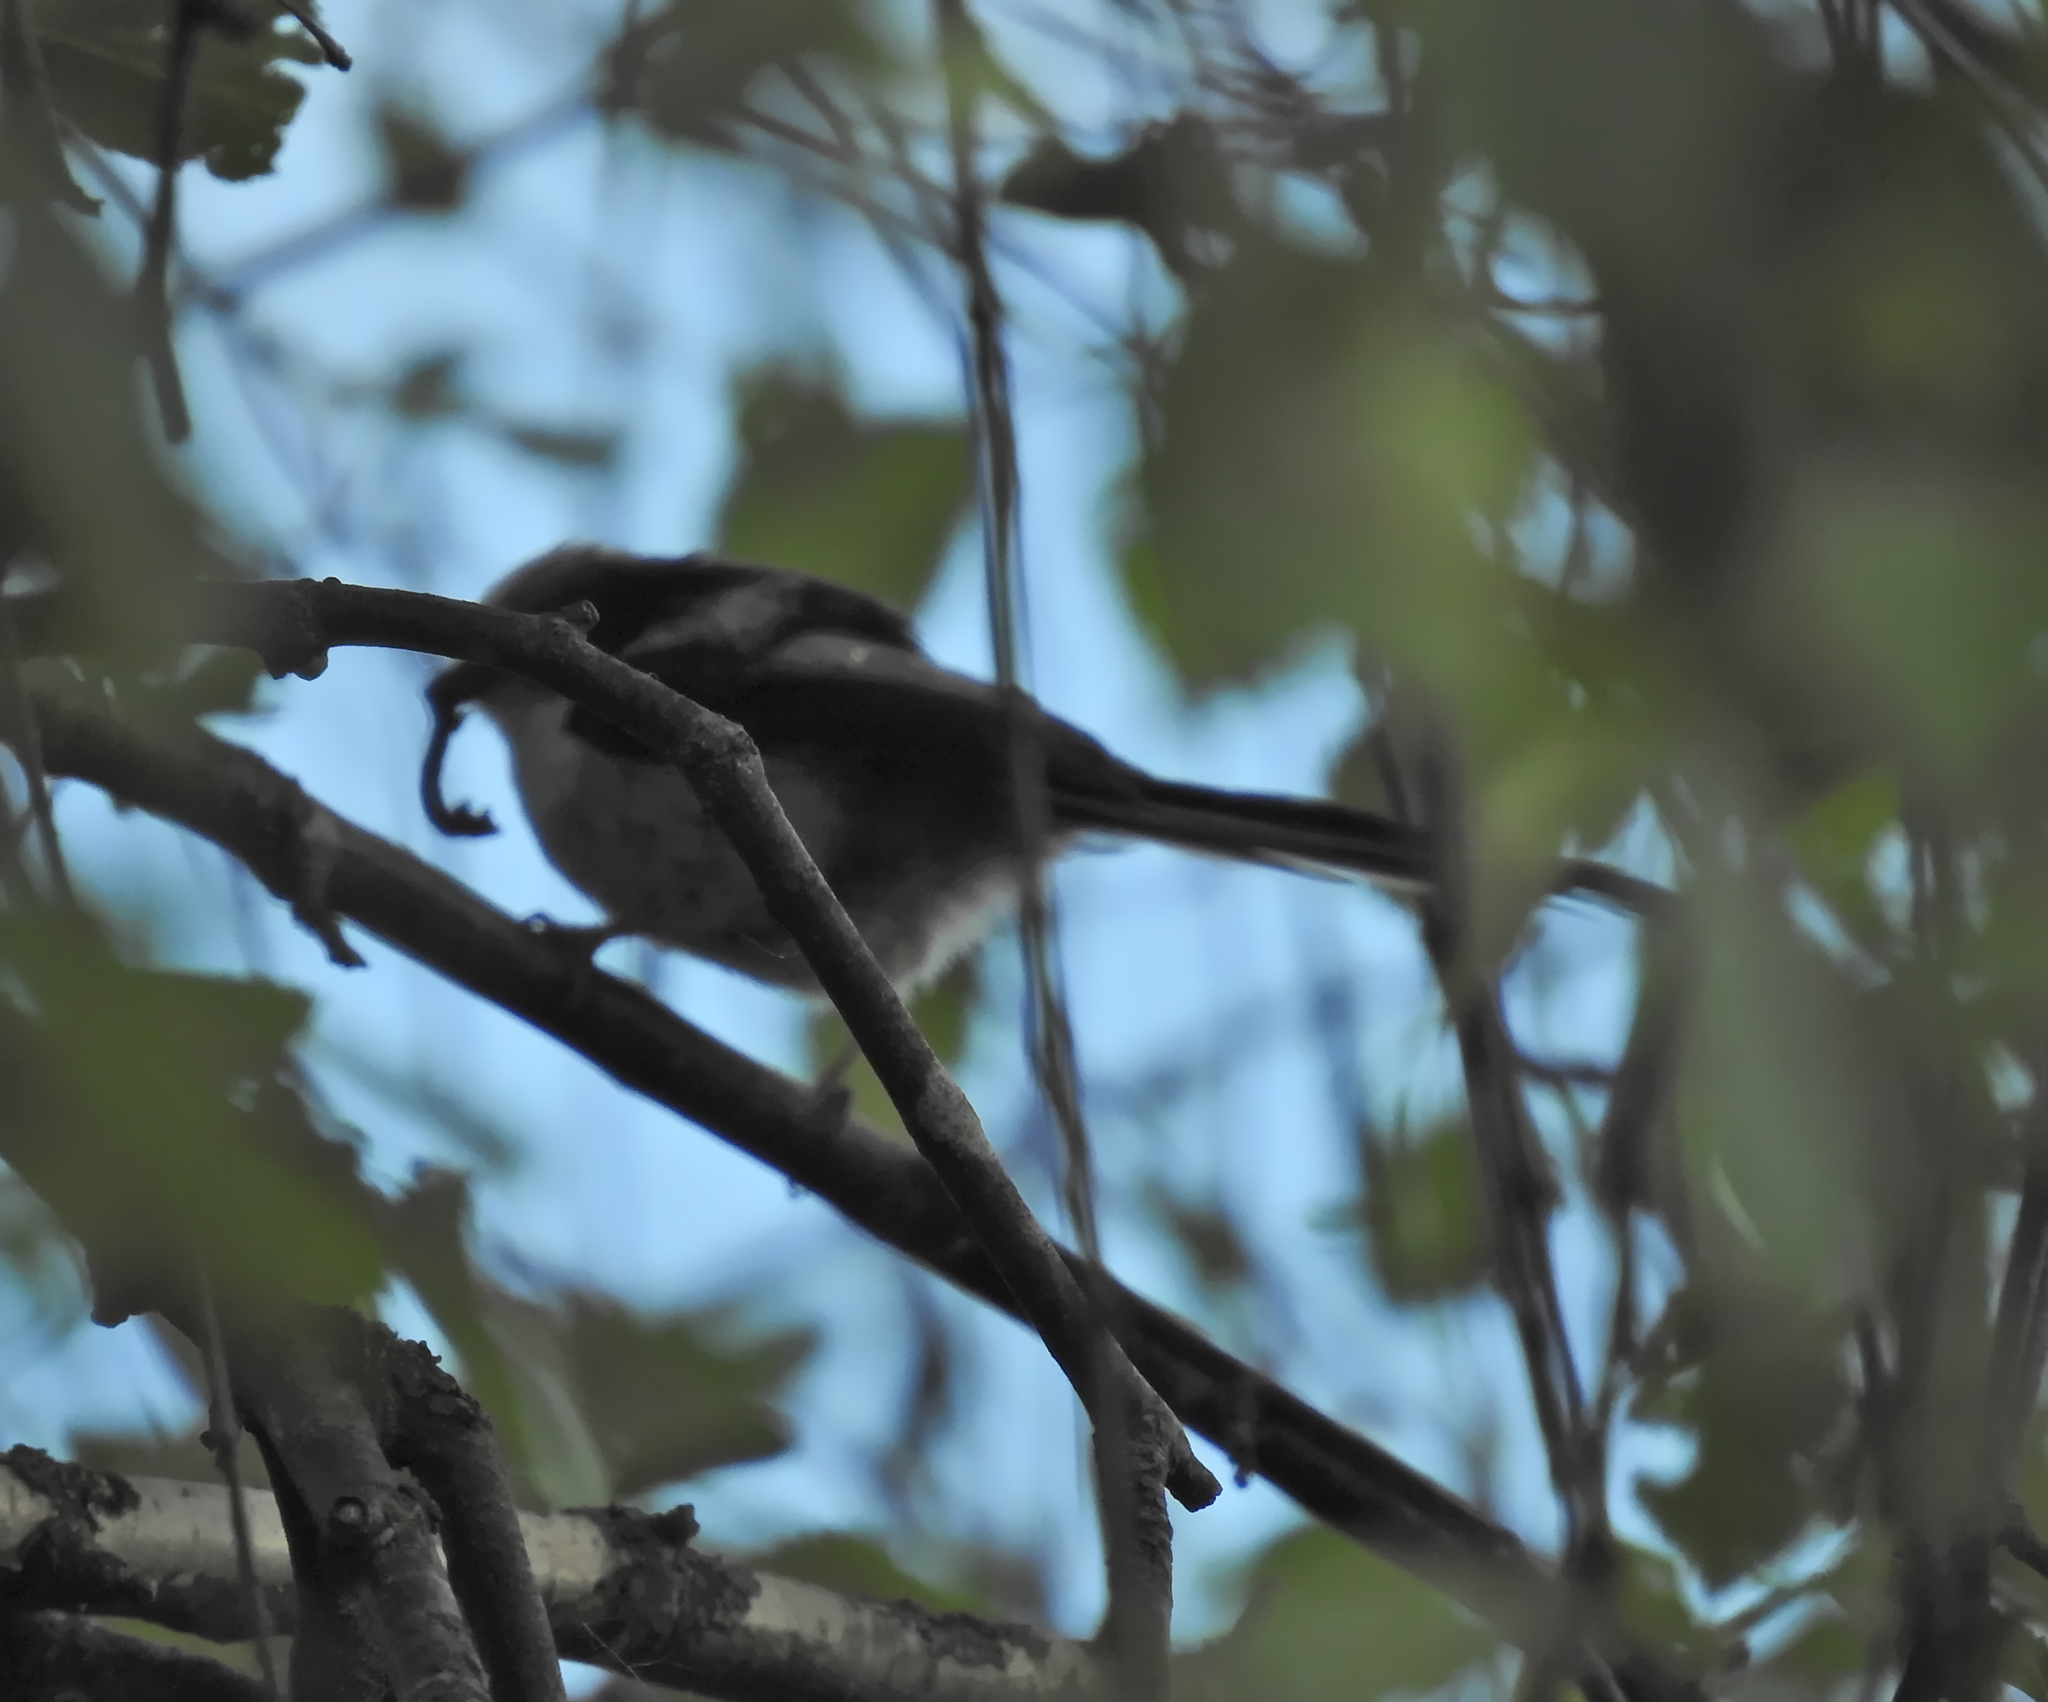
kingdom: Animalia
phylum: Chordata
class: Aves
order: Passeriformes
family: Aegithalidae
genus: Aegithalos
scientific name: Aegithalos caudatus
